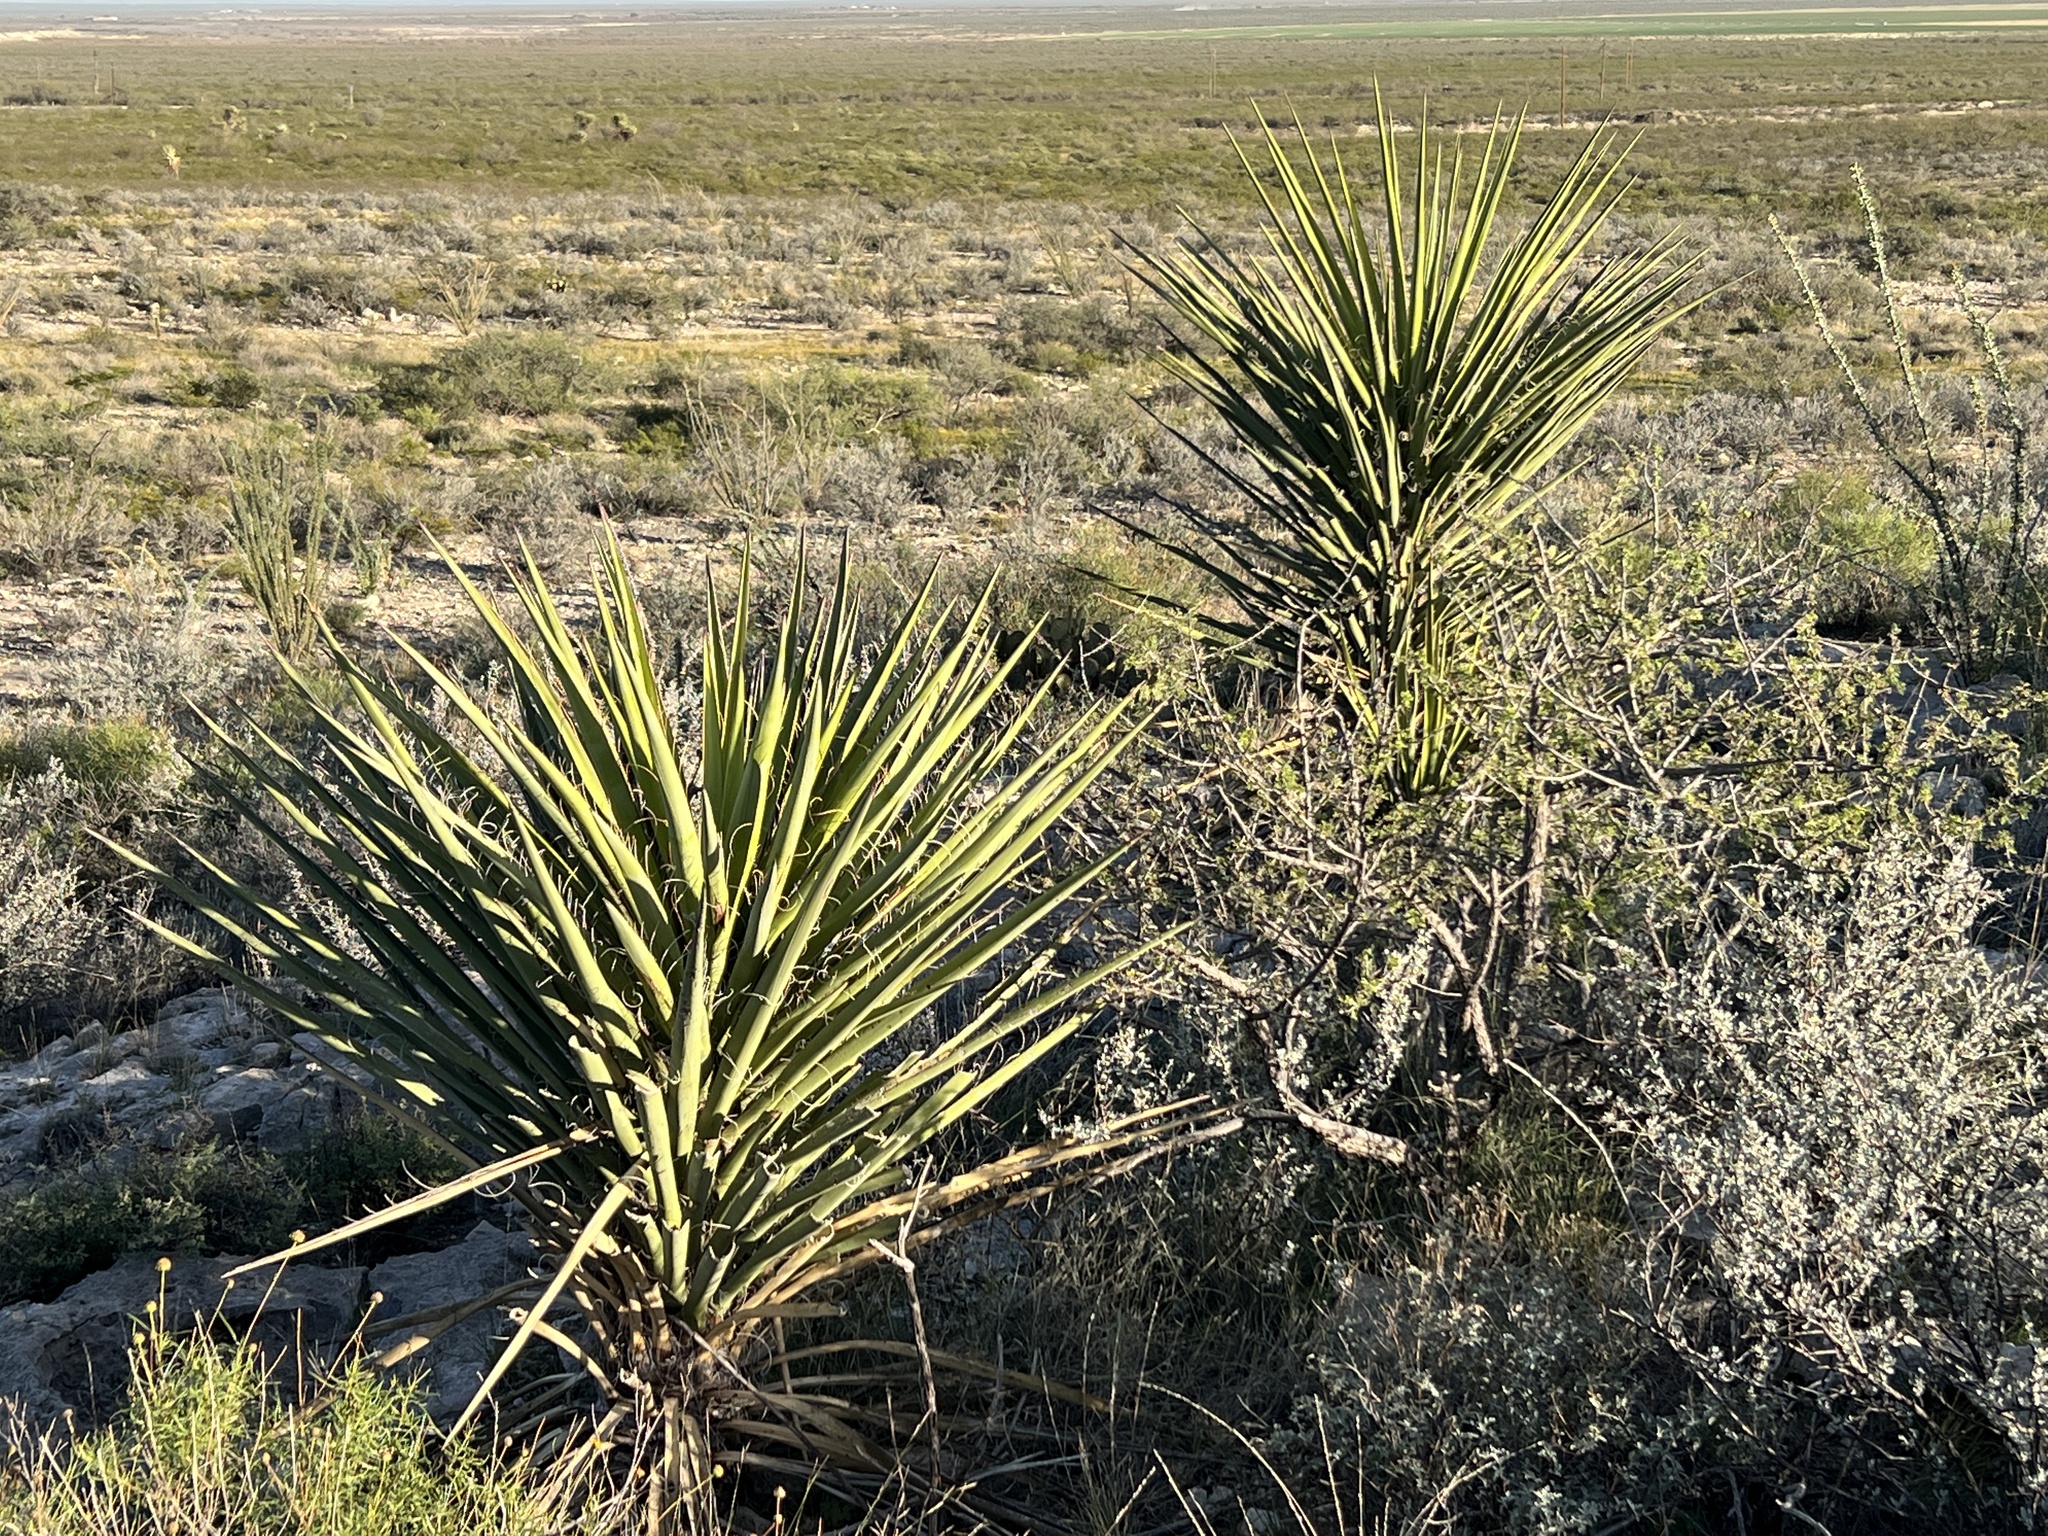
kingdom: Plantae
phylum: Tracheophyta
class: Liliopsida
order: Asparagales
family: Asparagaceae
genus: Yucca
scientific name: Yucca treculiana
